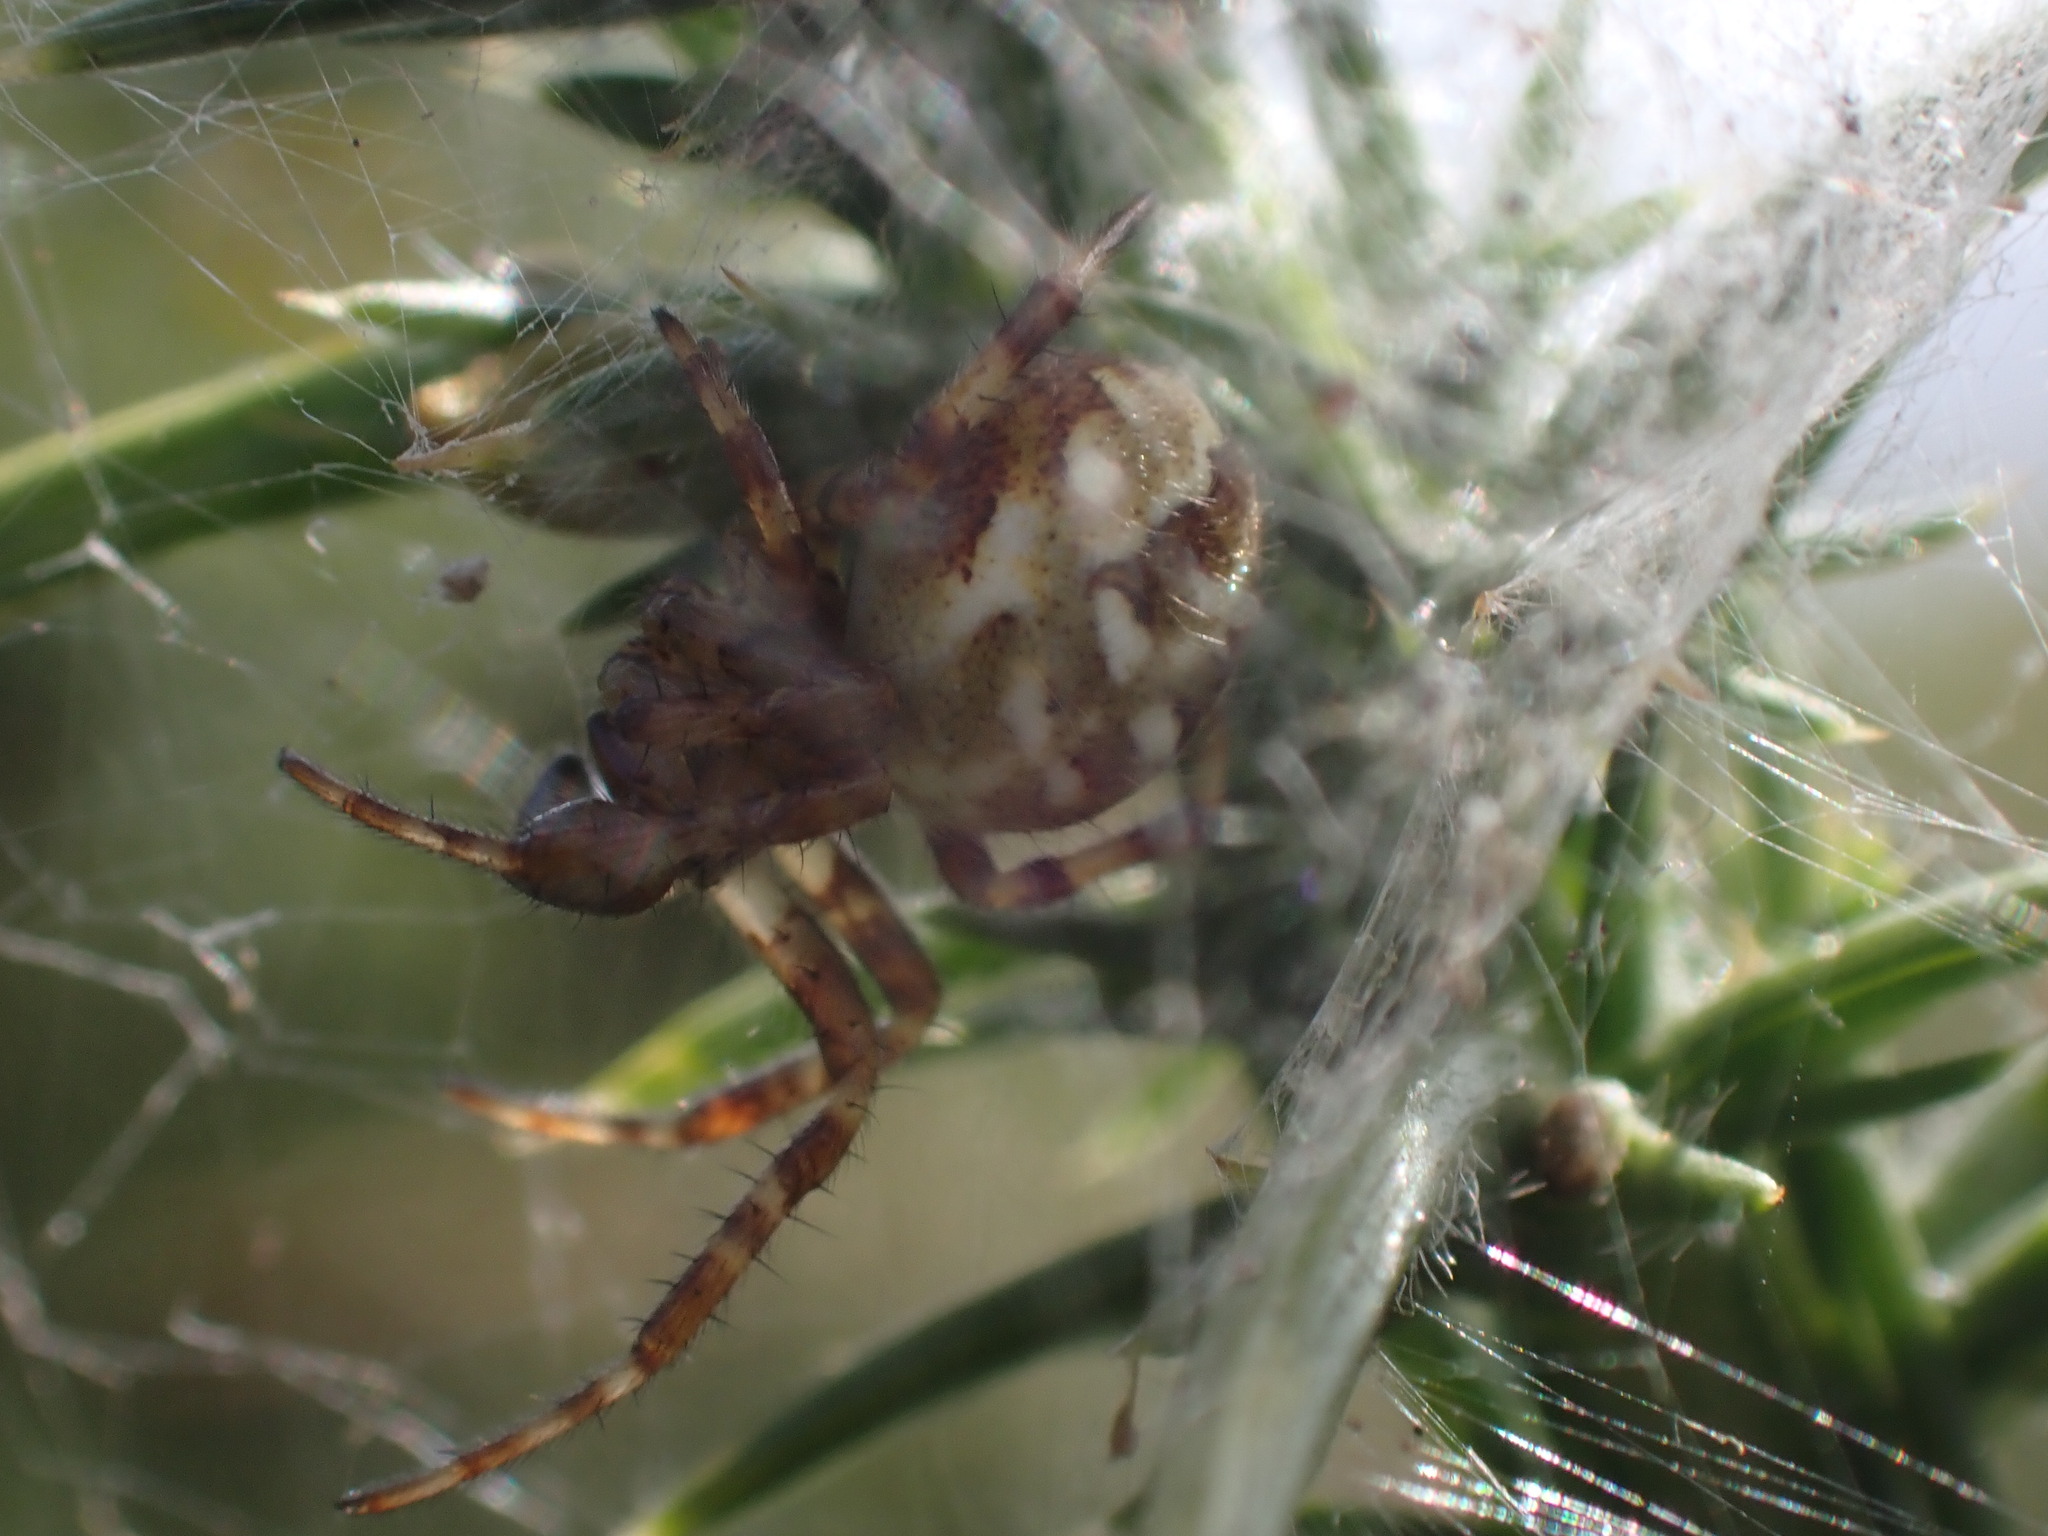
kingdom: Animalia
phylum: Arthropoda
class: Arachnida
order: Araneae
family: Araneidae
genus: Araneus
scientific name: Araneus quadratus
